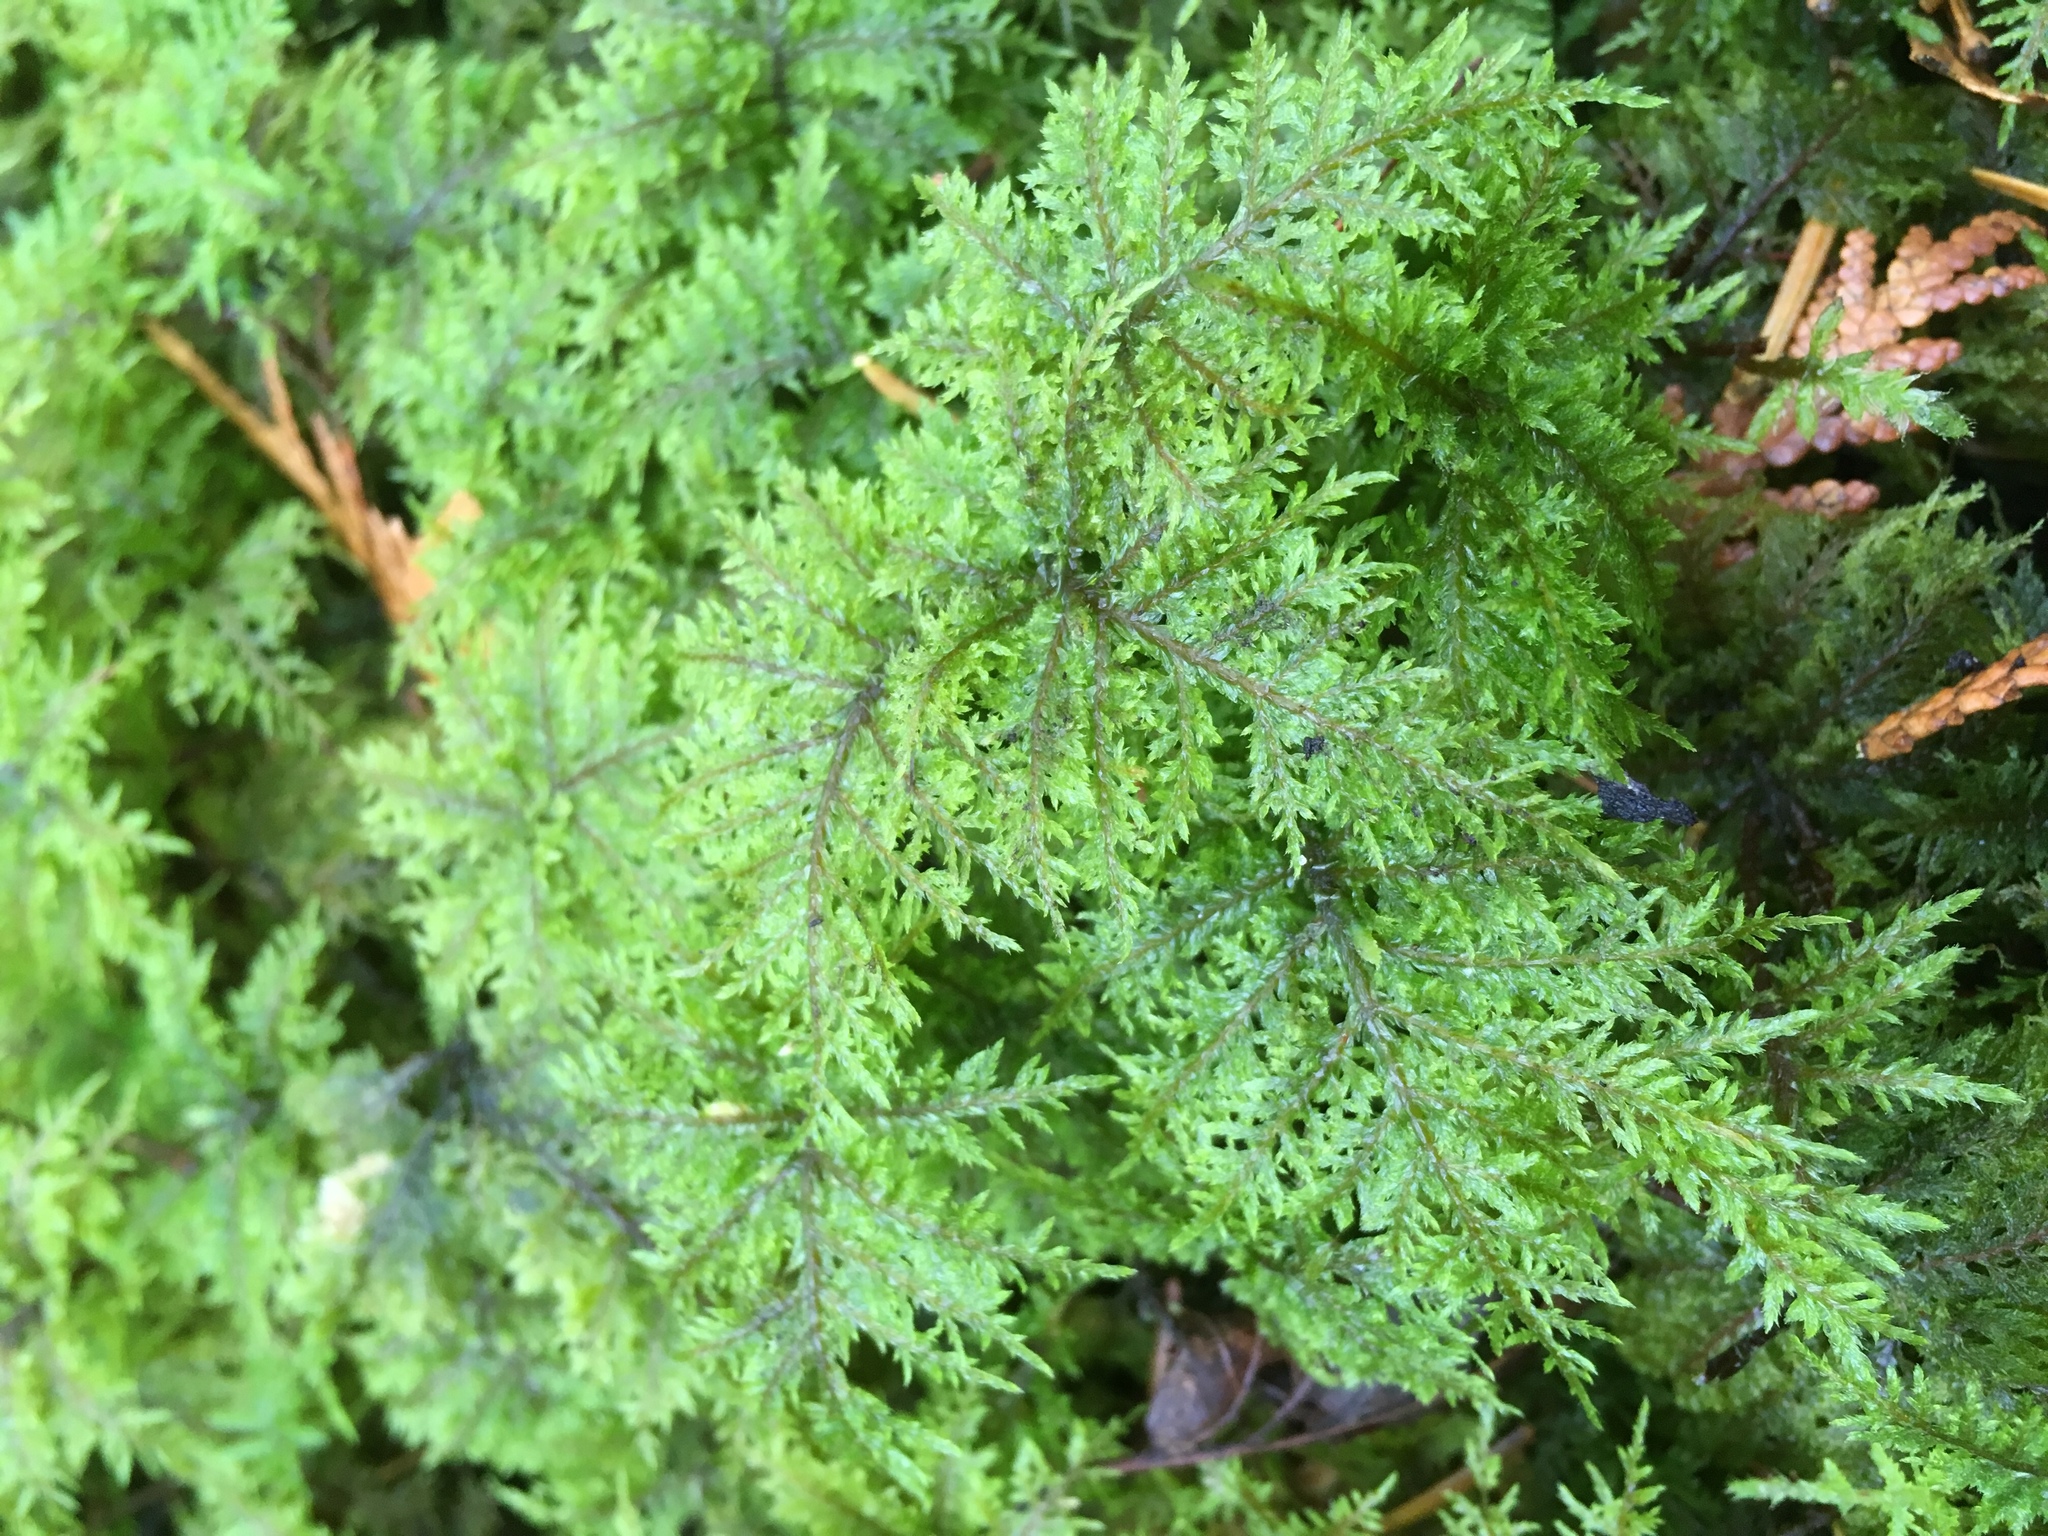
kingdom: Plantae
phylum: Bryophyta
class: Bryopsida
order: Hypnales
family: Hylocomiaceae
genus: Hylocomium
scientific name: Hylocomium splendens
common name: Stairstep moss
